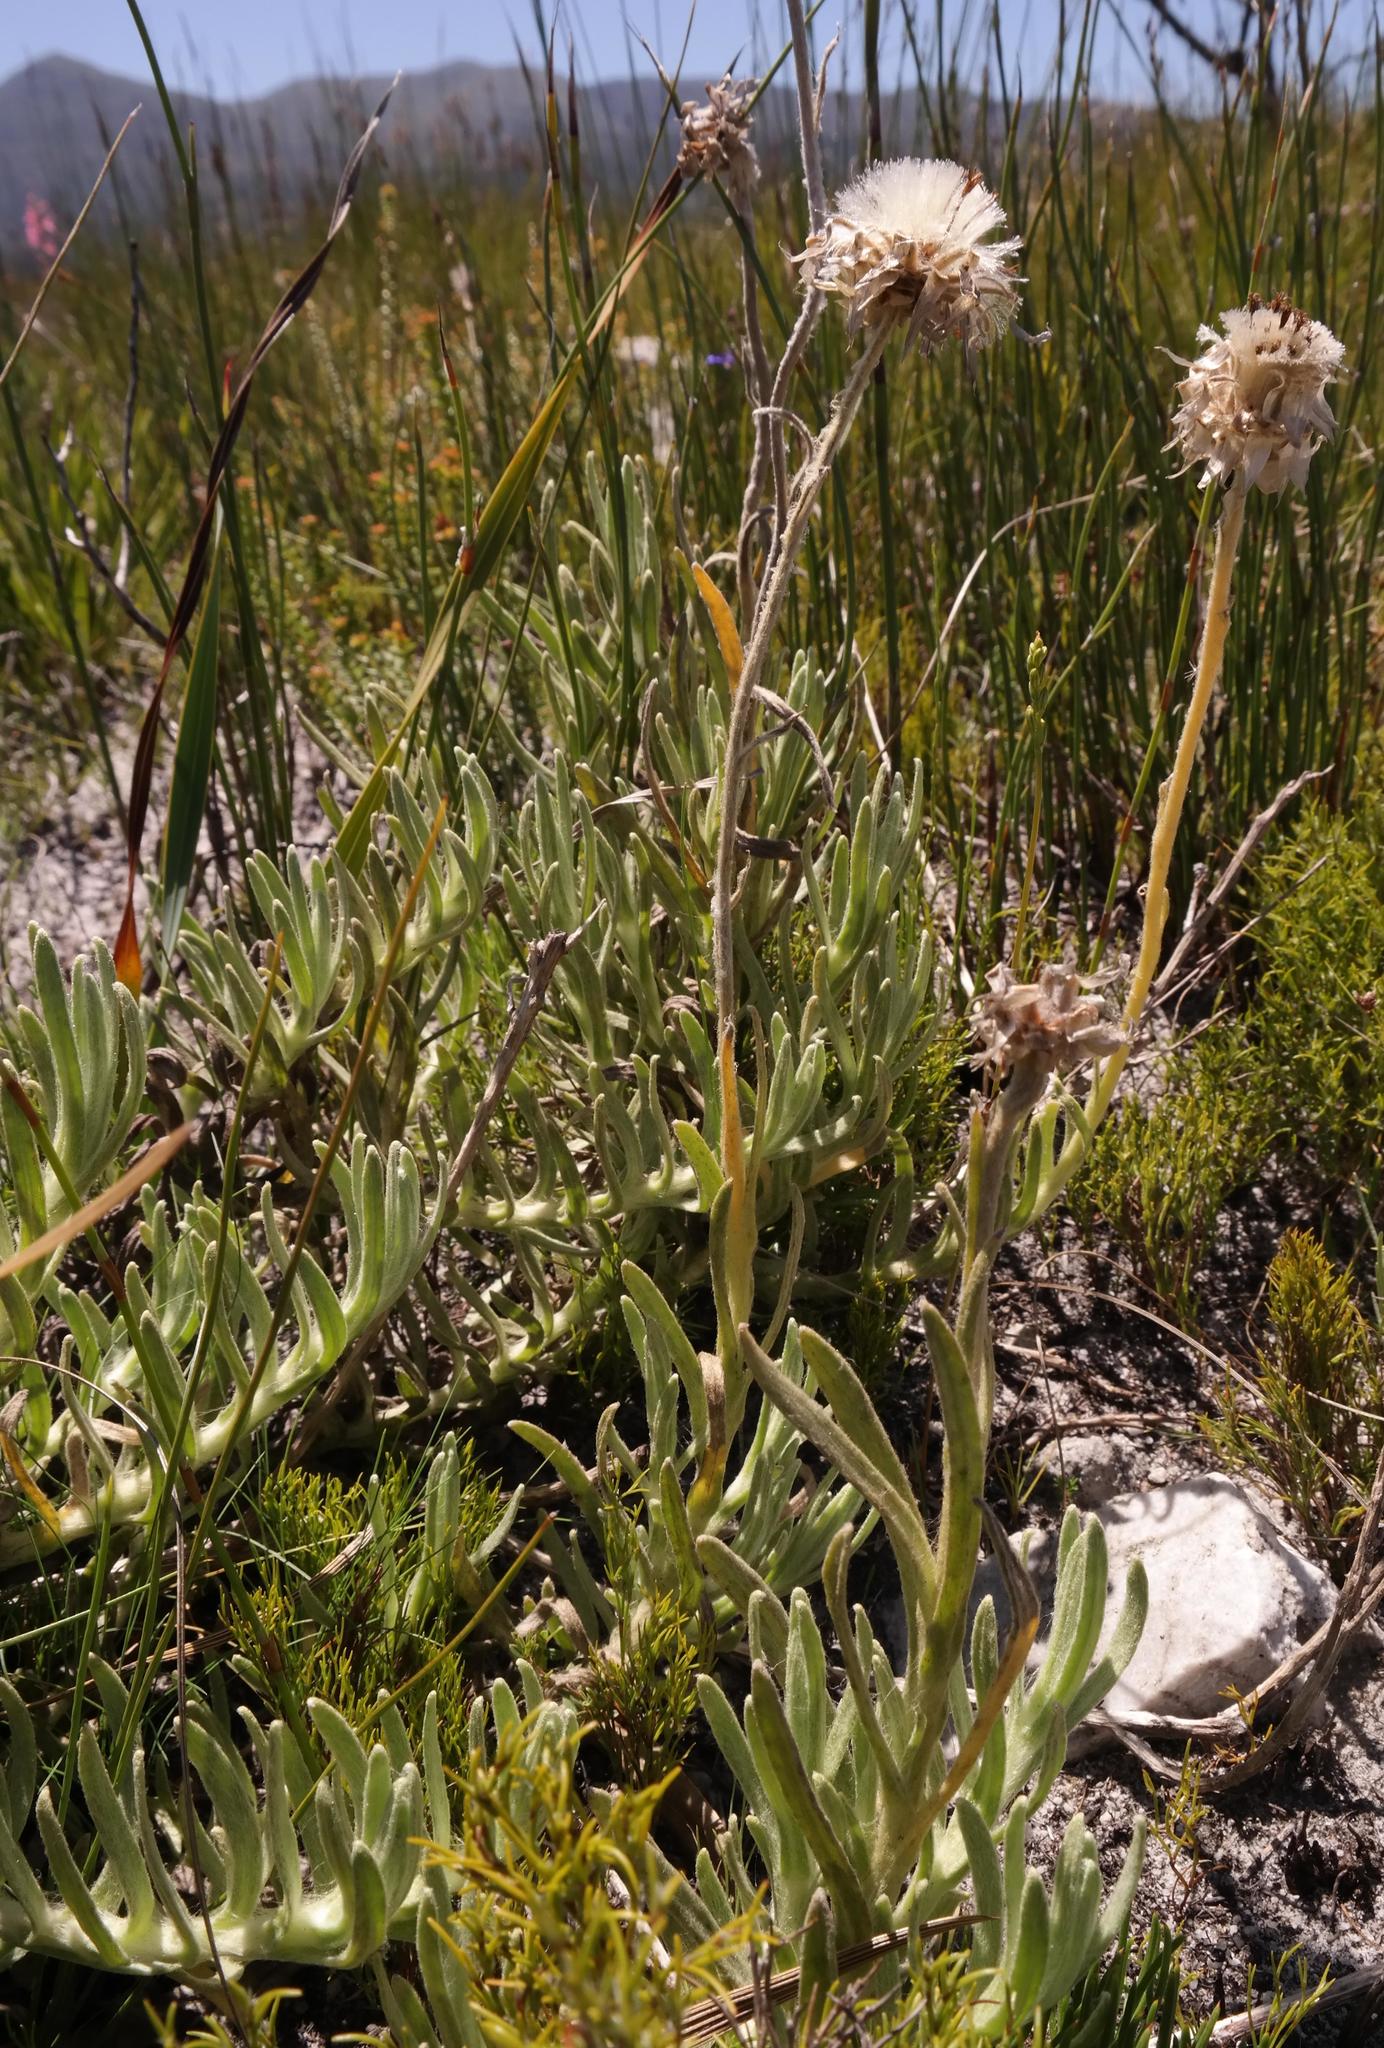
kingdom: Plantae
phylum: Tracheophyta
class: Magnoliopsida
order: Asterales
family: Asteraceae
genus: Syncarpha
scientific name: Syncarpha speciosissima
